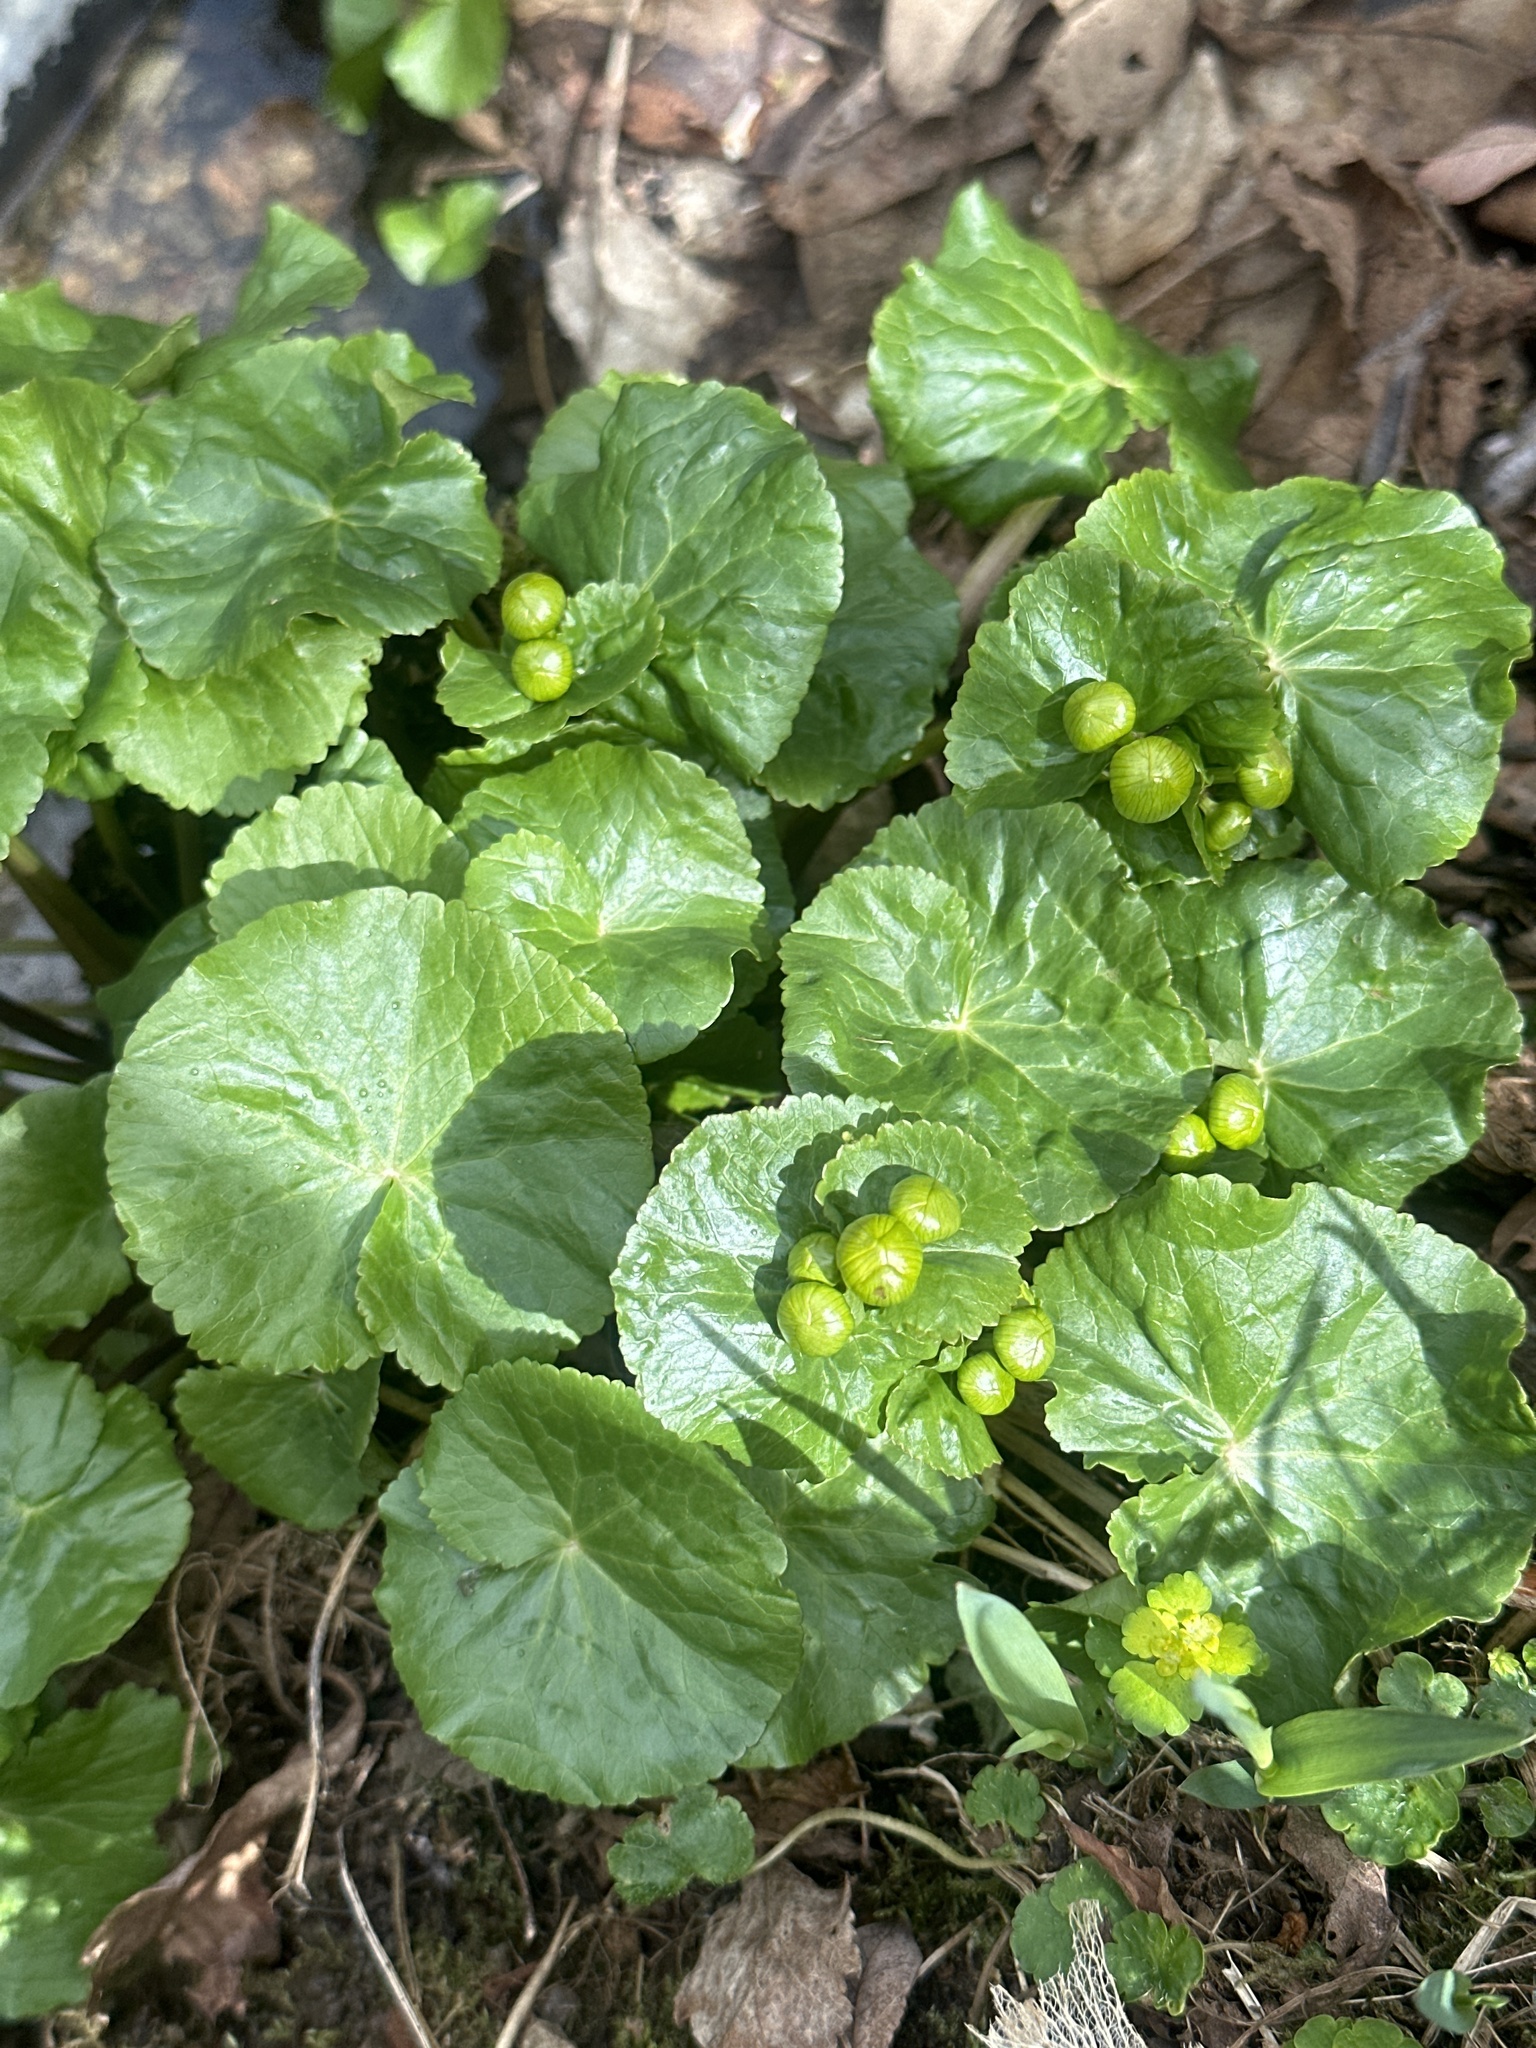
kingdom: Plantae
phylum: Tracheophyta
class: Magnoliopsida
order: Ranunculales
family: Ranunculaceae
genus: Caltha
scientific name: Caltha palustris
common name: Marsh marigold
